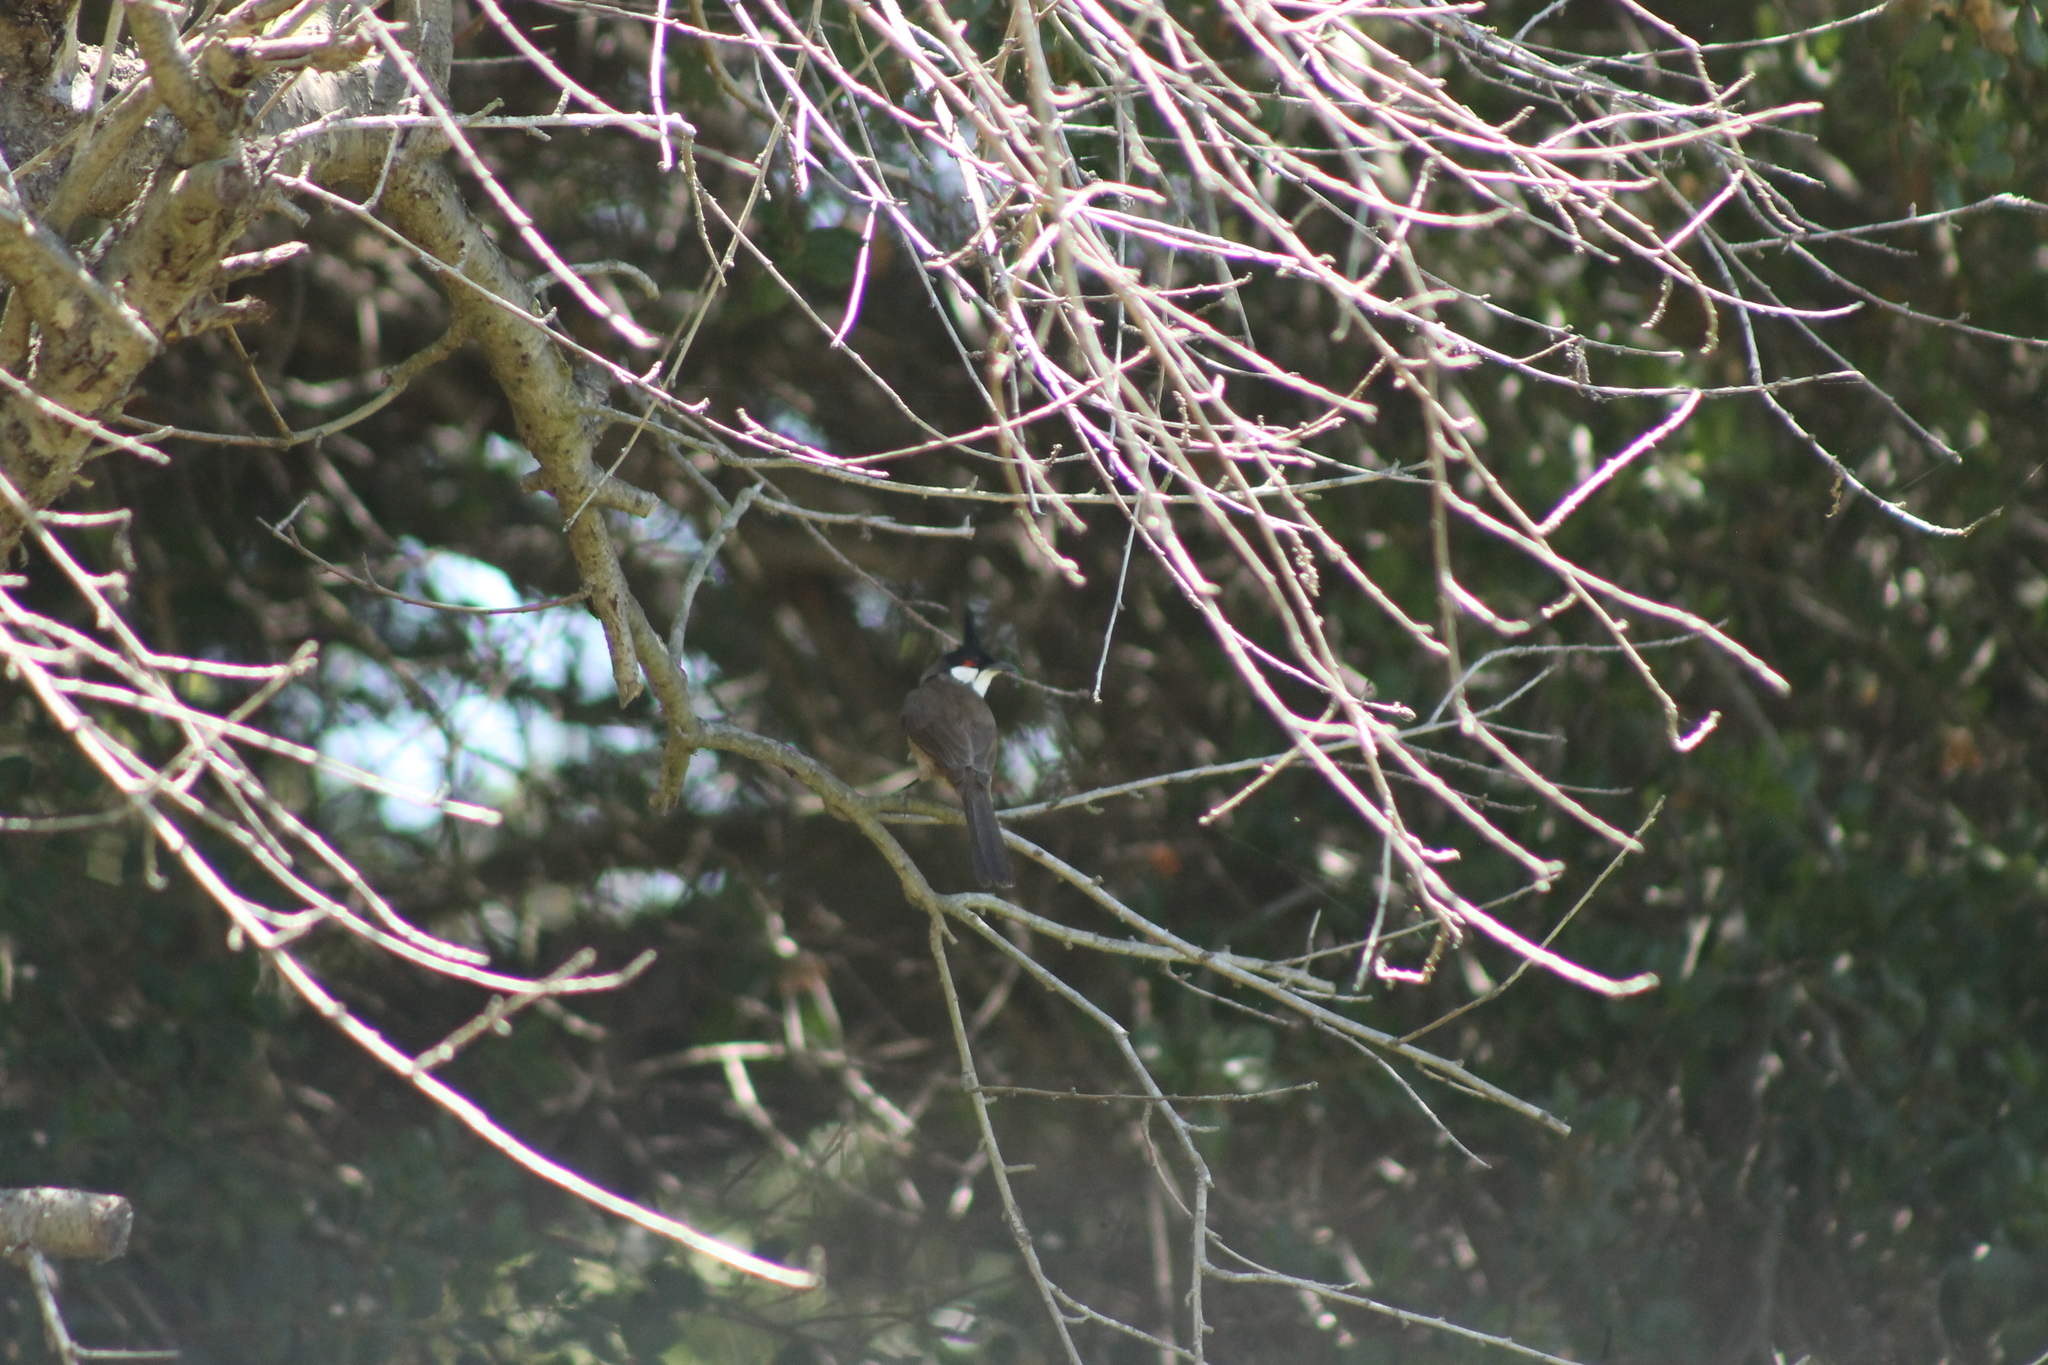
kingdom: Animalia
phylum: Chordata
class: Aves
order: Passeriformes
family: Pycnonotidae
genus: Pycnonotus
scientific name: Pycnonotus jocosus
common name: Red-whiskered bulbul
